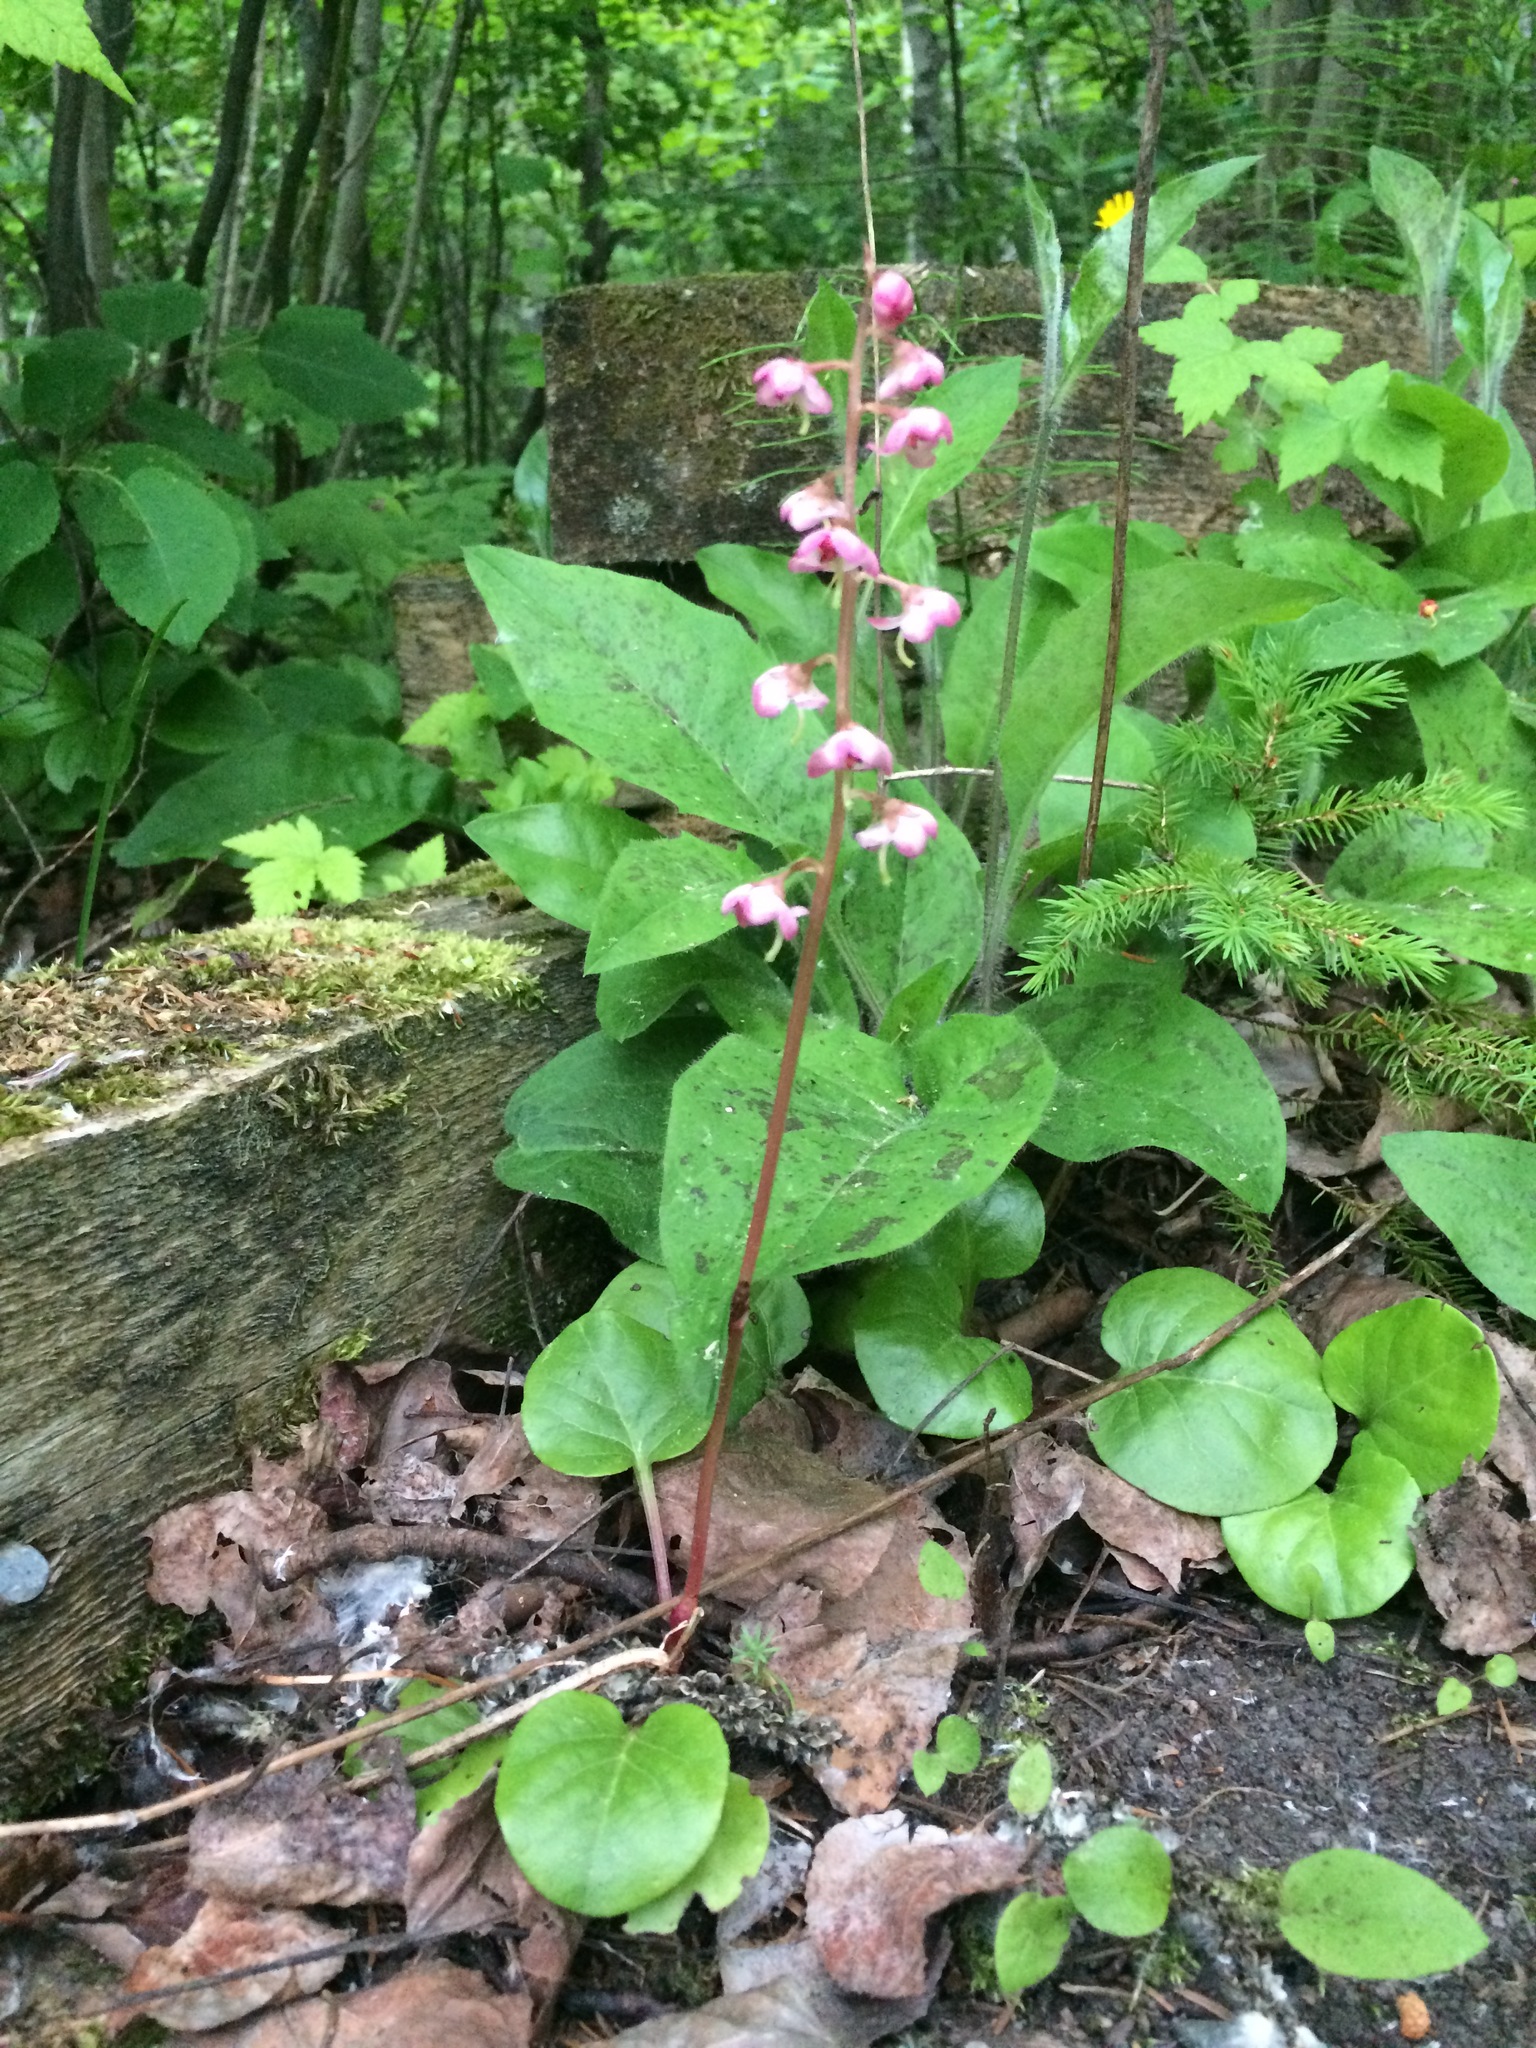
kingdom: Plantae
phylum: Tracheophyta
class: Magnoliopsida
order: Ericales
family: Ericaceae
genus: Pyrola
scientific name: Pyrola asarifolia
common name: Bog wintergreen
